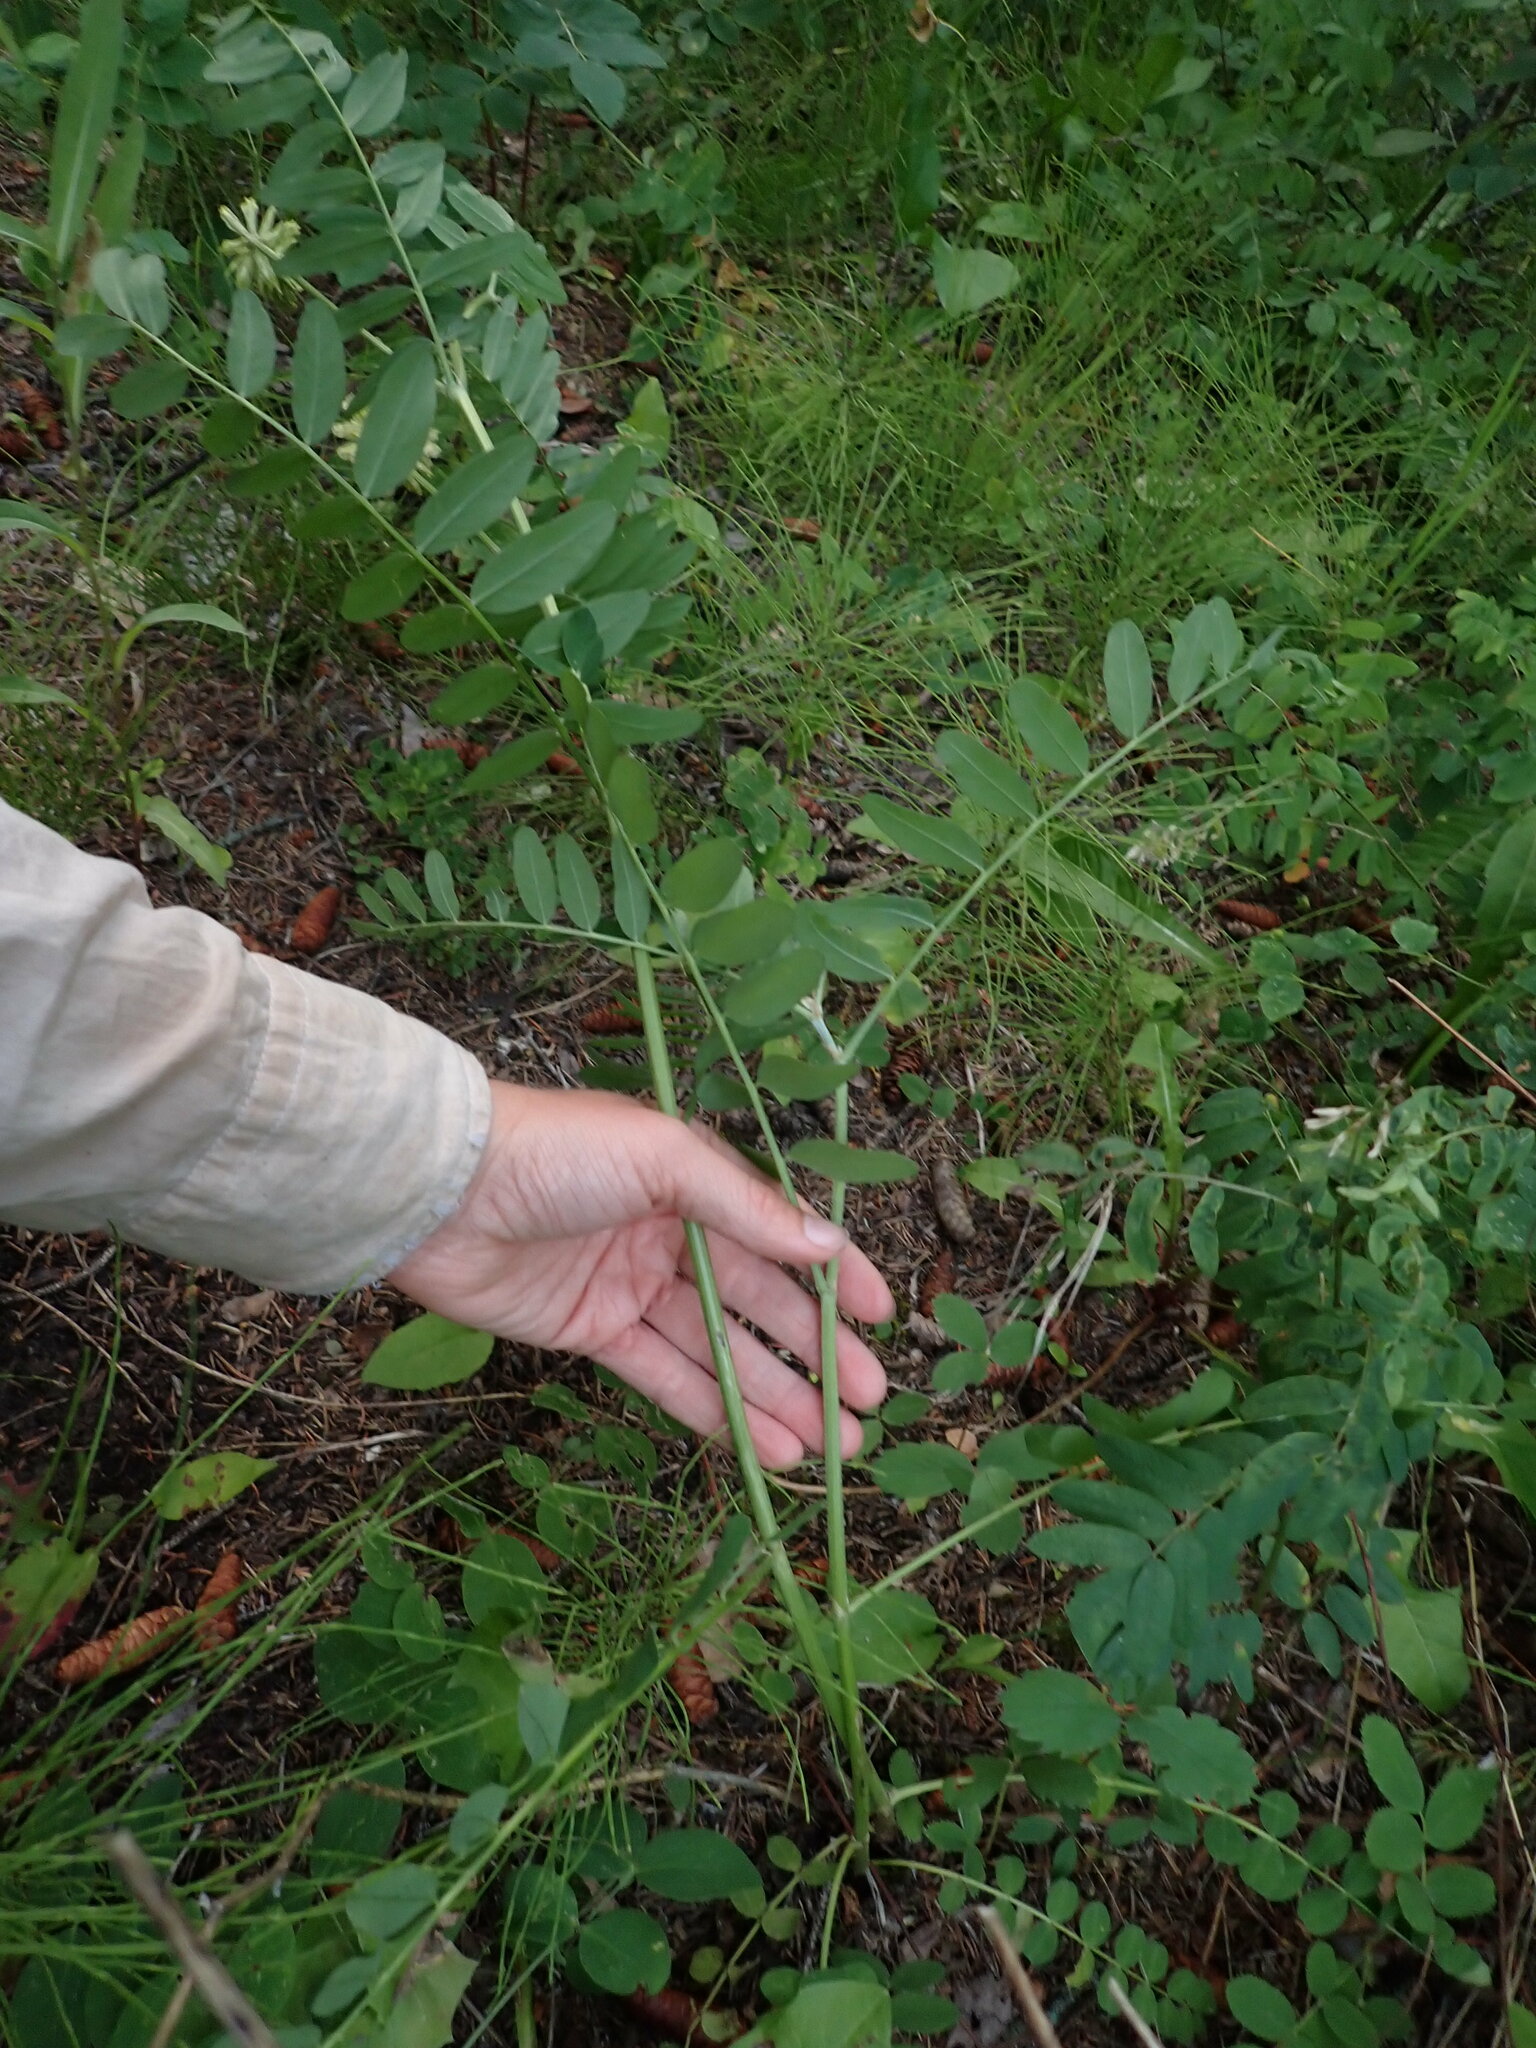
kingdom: Plantae
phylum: Tracheophyta
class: Magnoliopsida
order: Fabales
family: Fabaceae
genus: Astragalus
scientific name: Astragalus canadensis
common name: Canada milk-vetch
